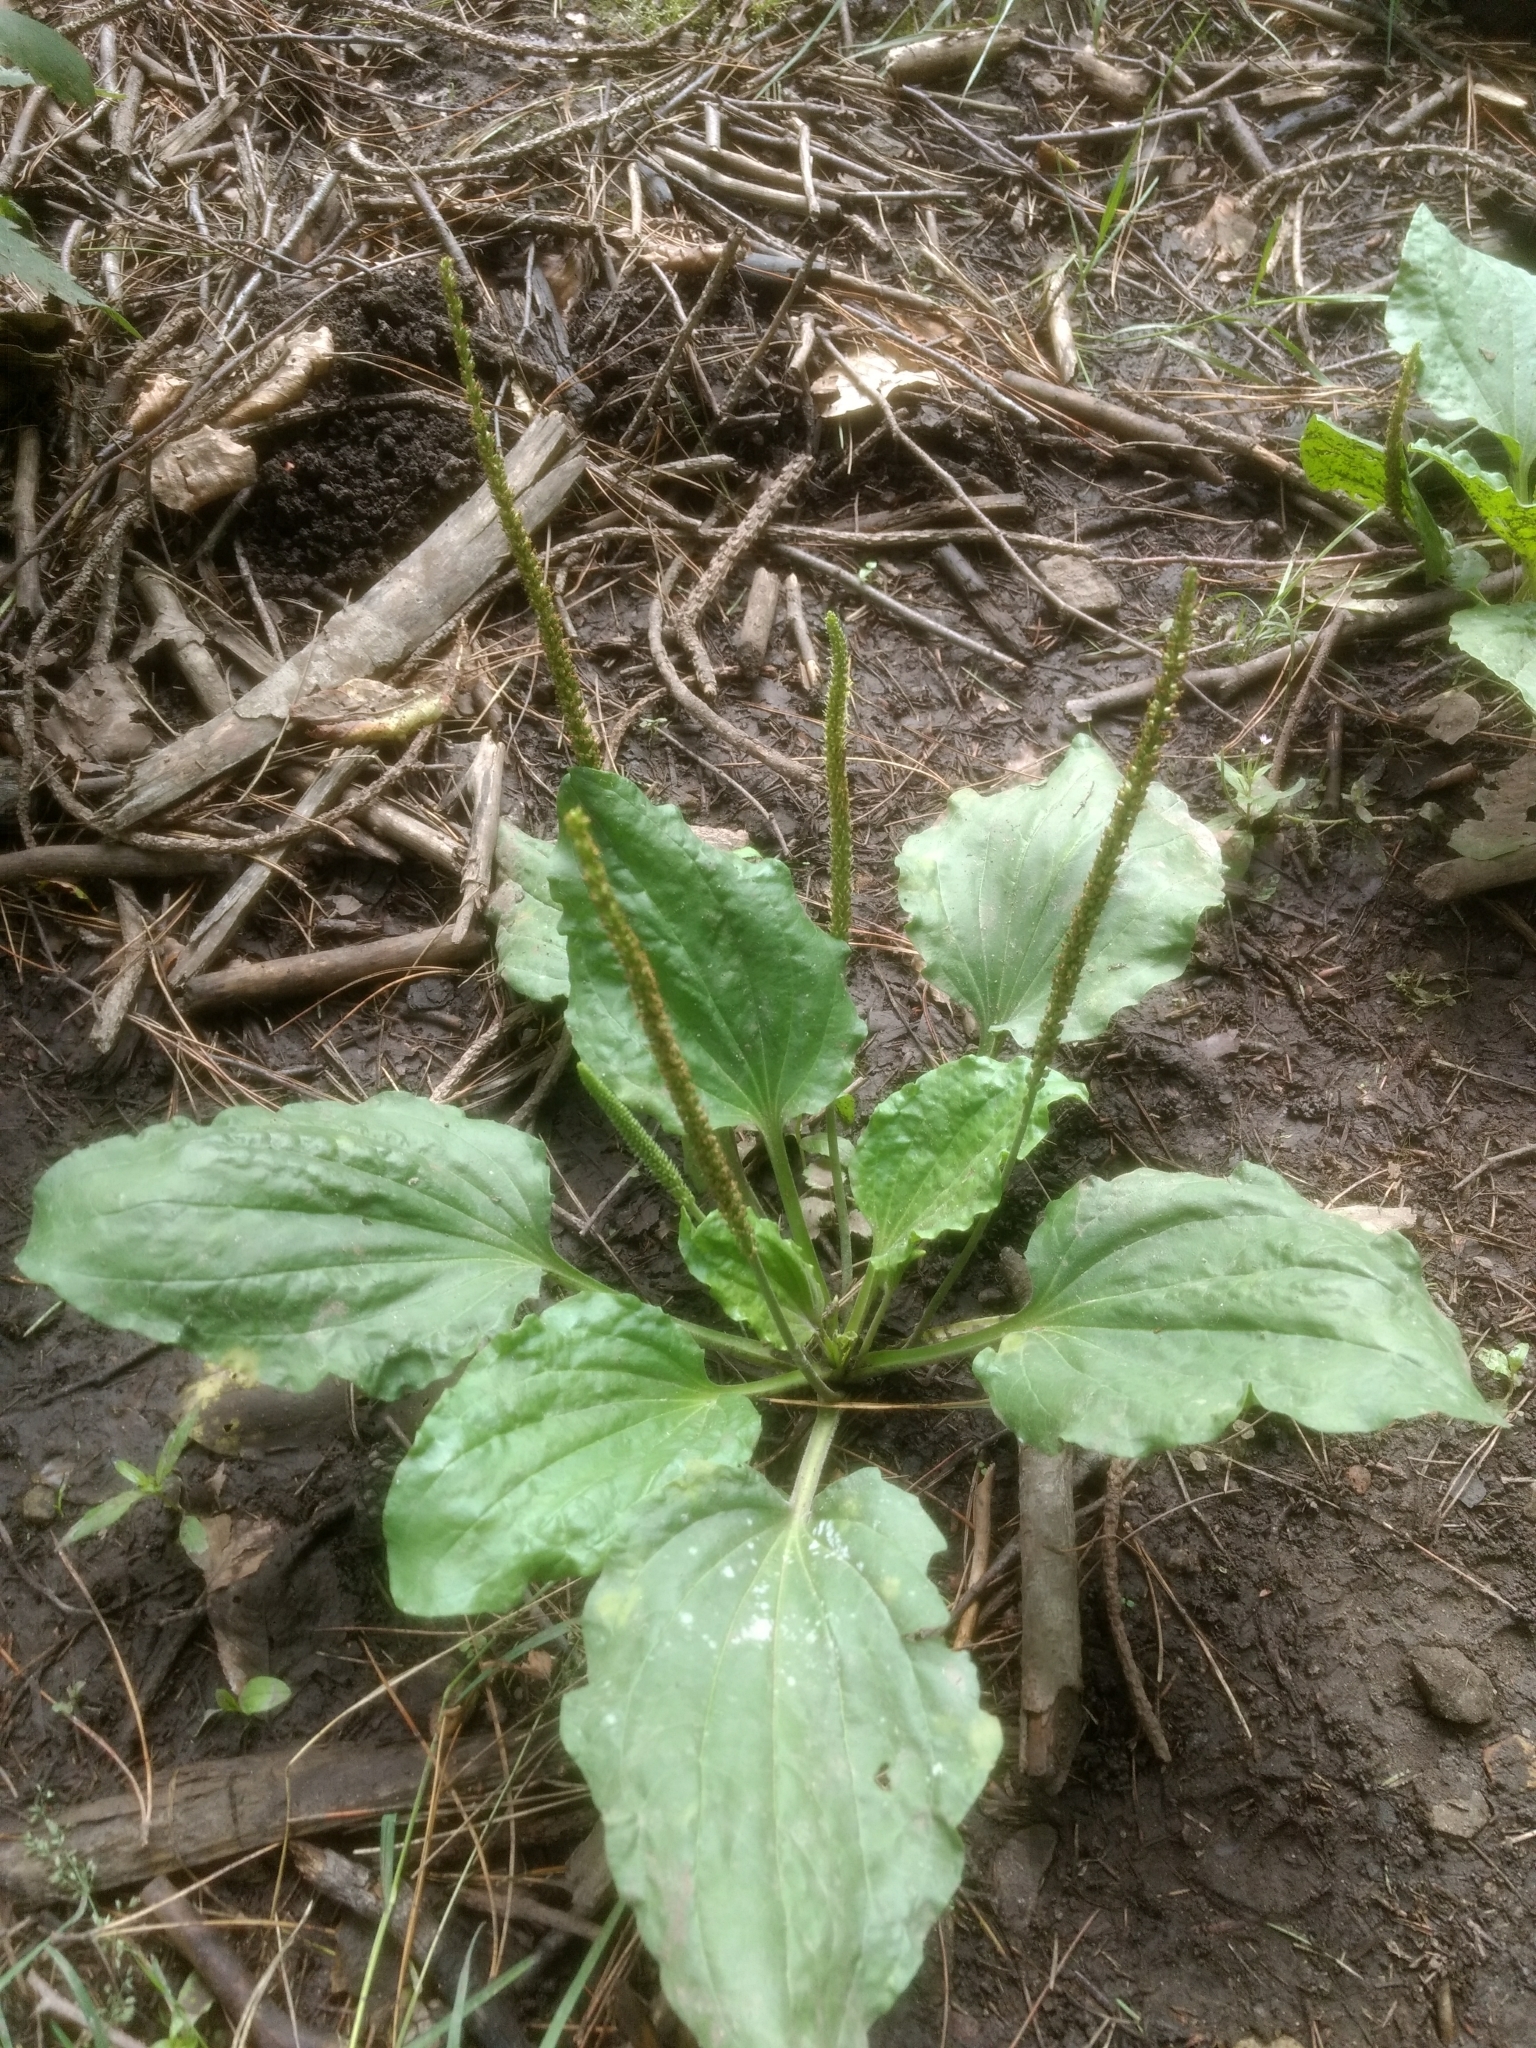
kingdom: Plantae
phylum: Tracheophyta
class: Magnoliopsida
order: Lamiales
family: Plantaginaceae
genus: Plantago
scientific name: Plantago major
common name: Common plantain
